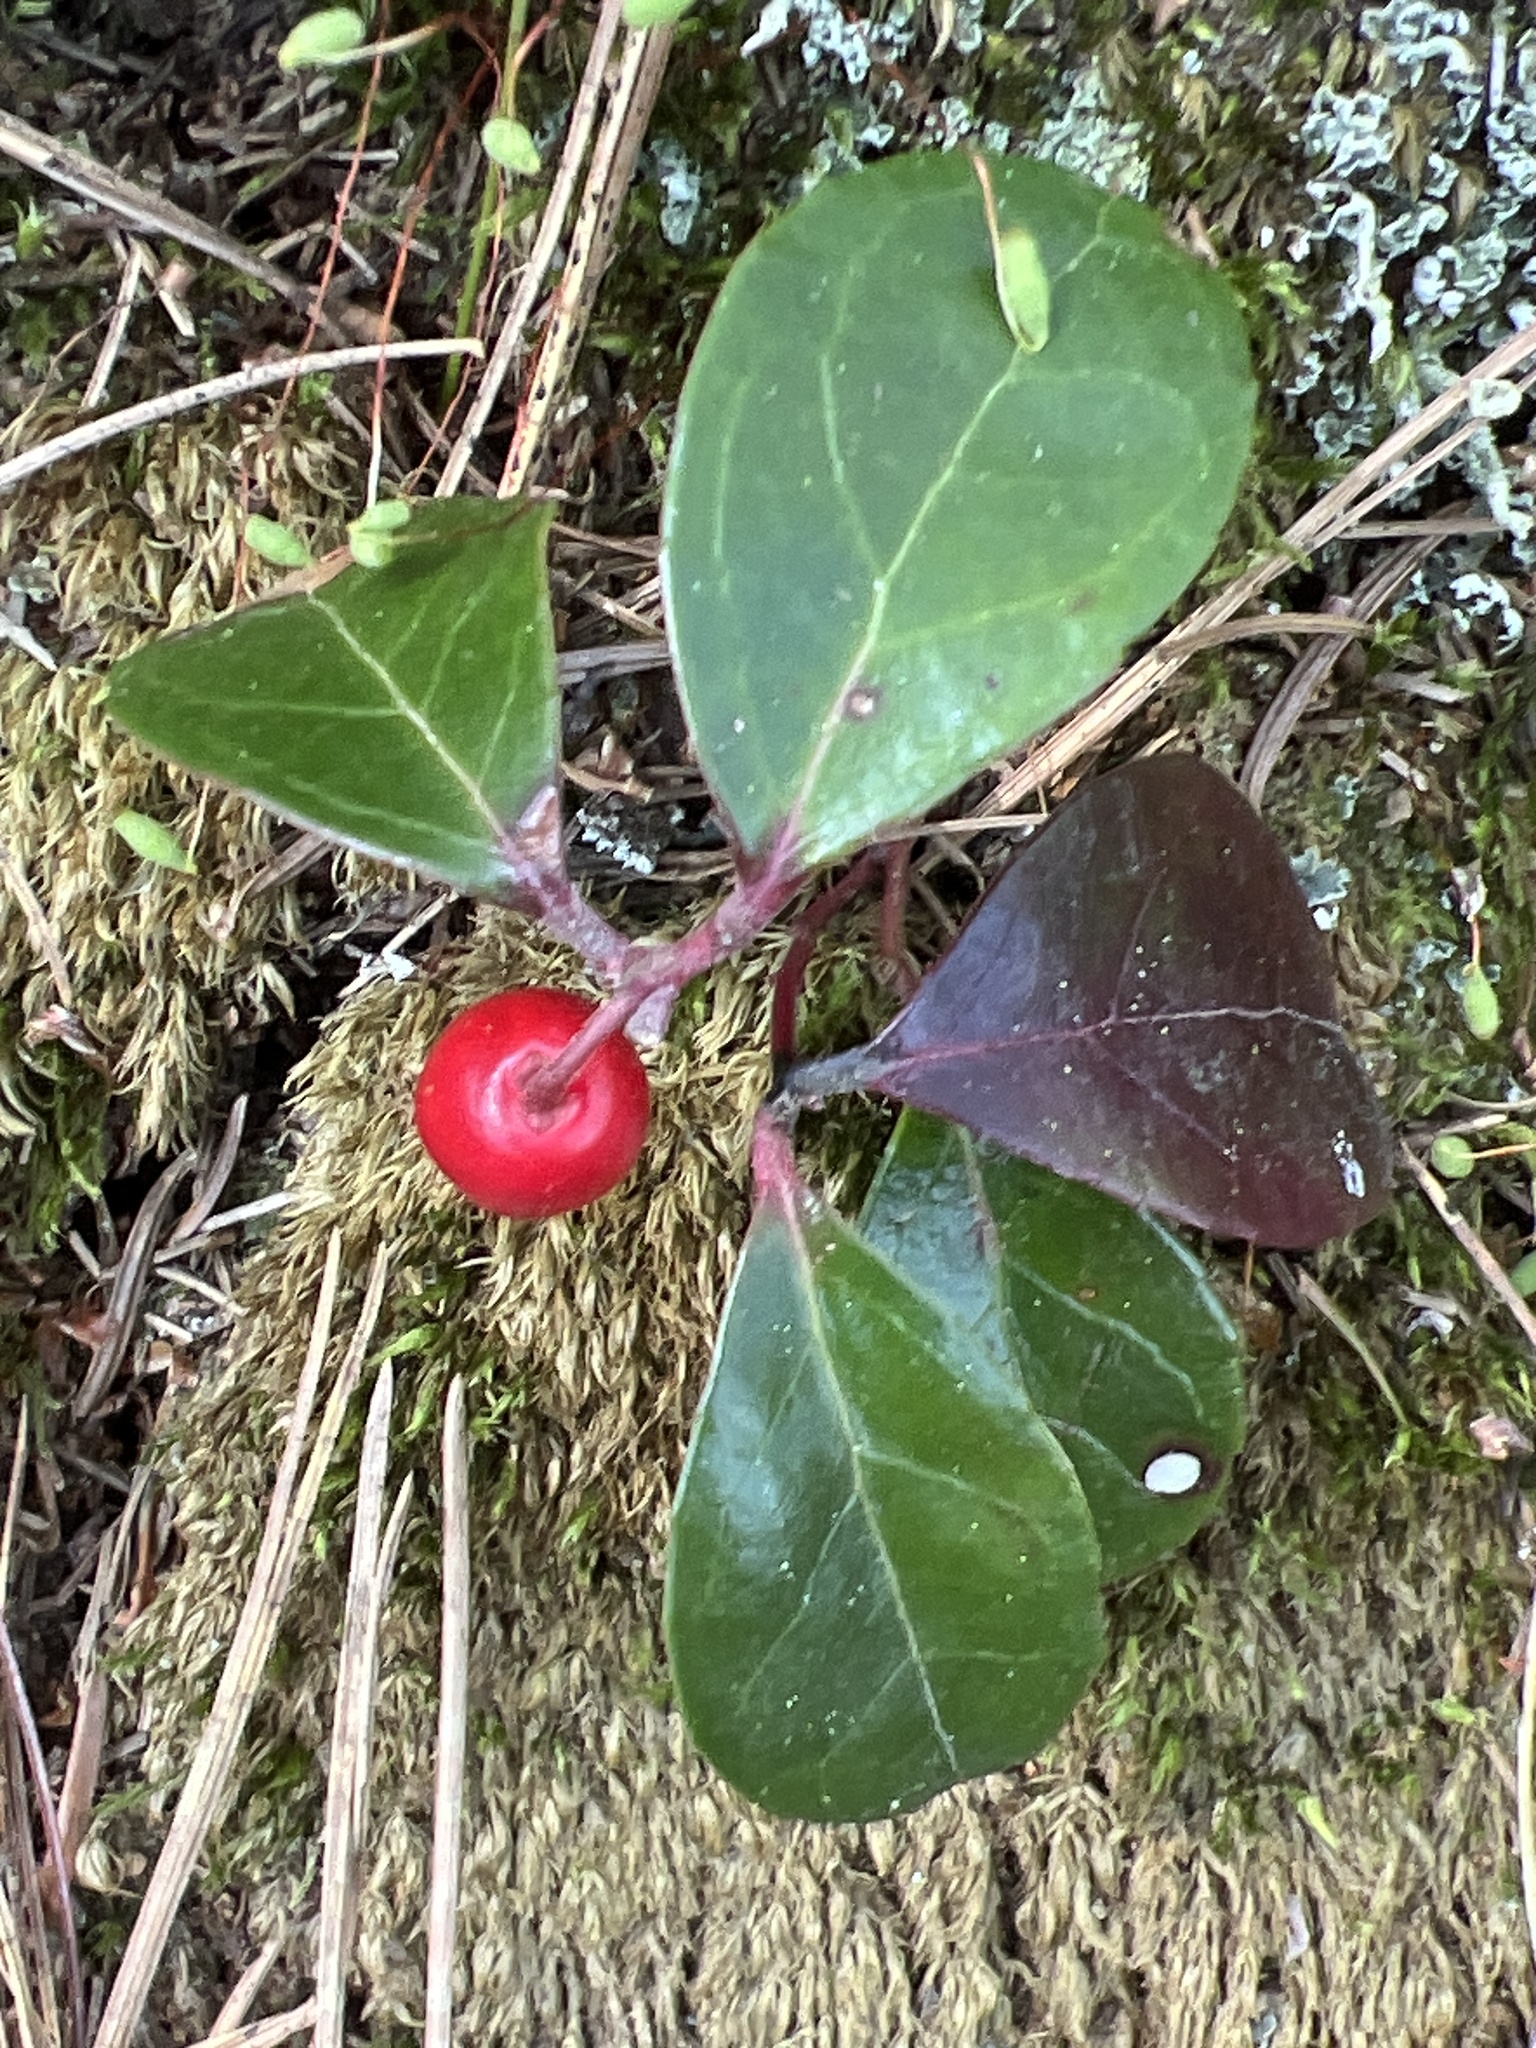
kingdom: Plantae
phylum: Tracheophyta
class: Magnoliopsida
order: Ericales
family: Ericaceae
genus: Gaultheria
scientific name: Gaultheria procumbens
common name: Checkerberry
